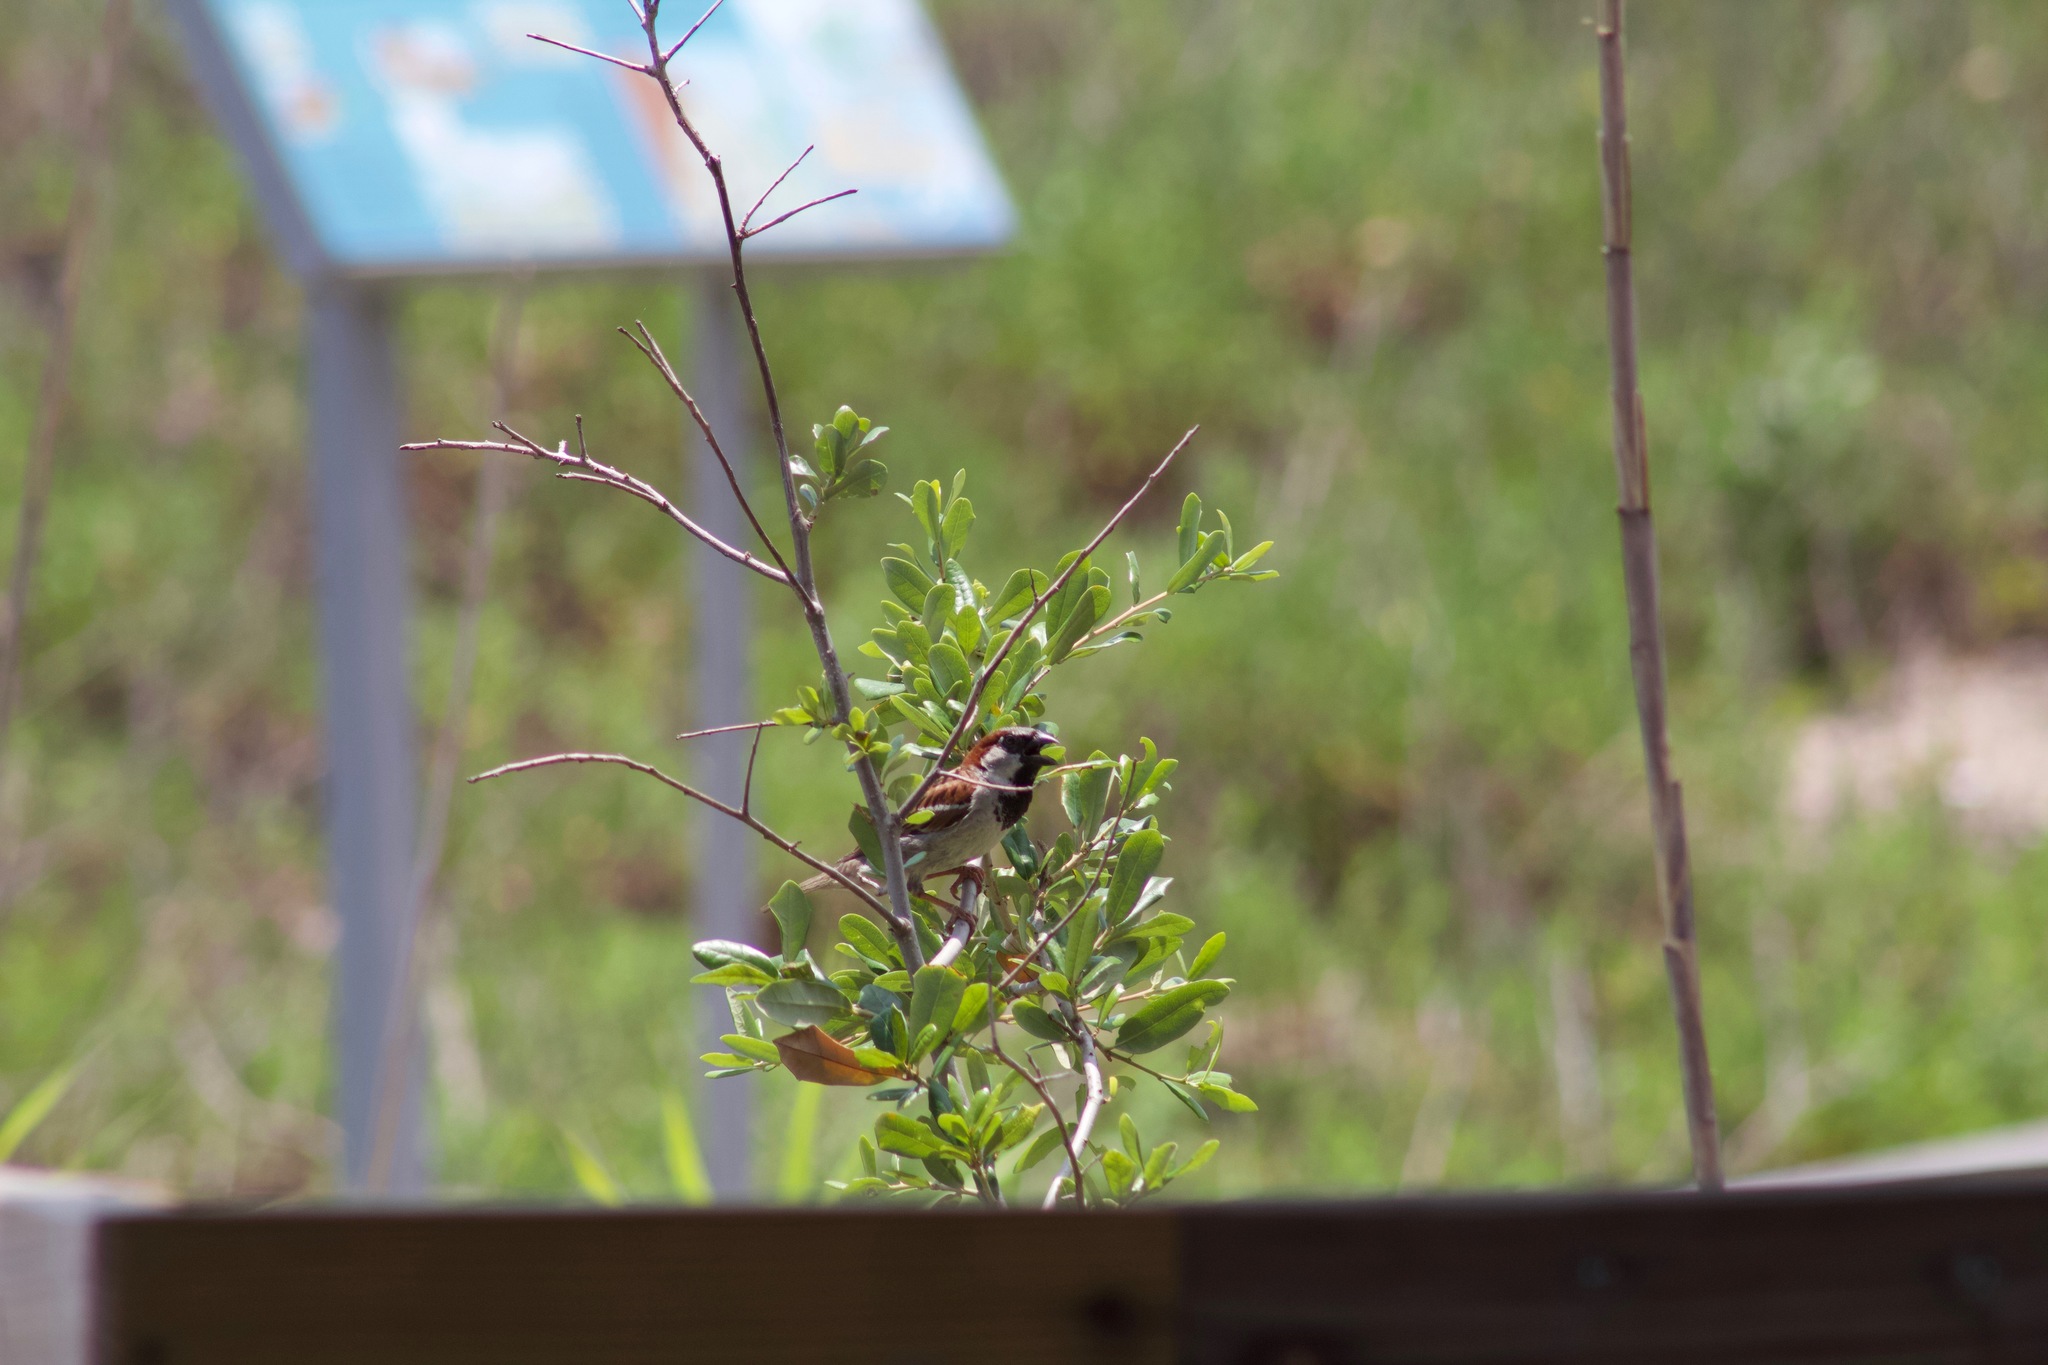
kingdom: Animalia
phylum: Chordata
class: Aves
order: Passeriformes
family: Passeridae
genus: Passer
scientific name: Passer domesticus
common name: House sparrow
